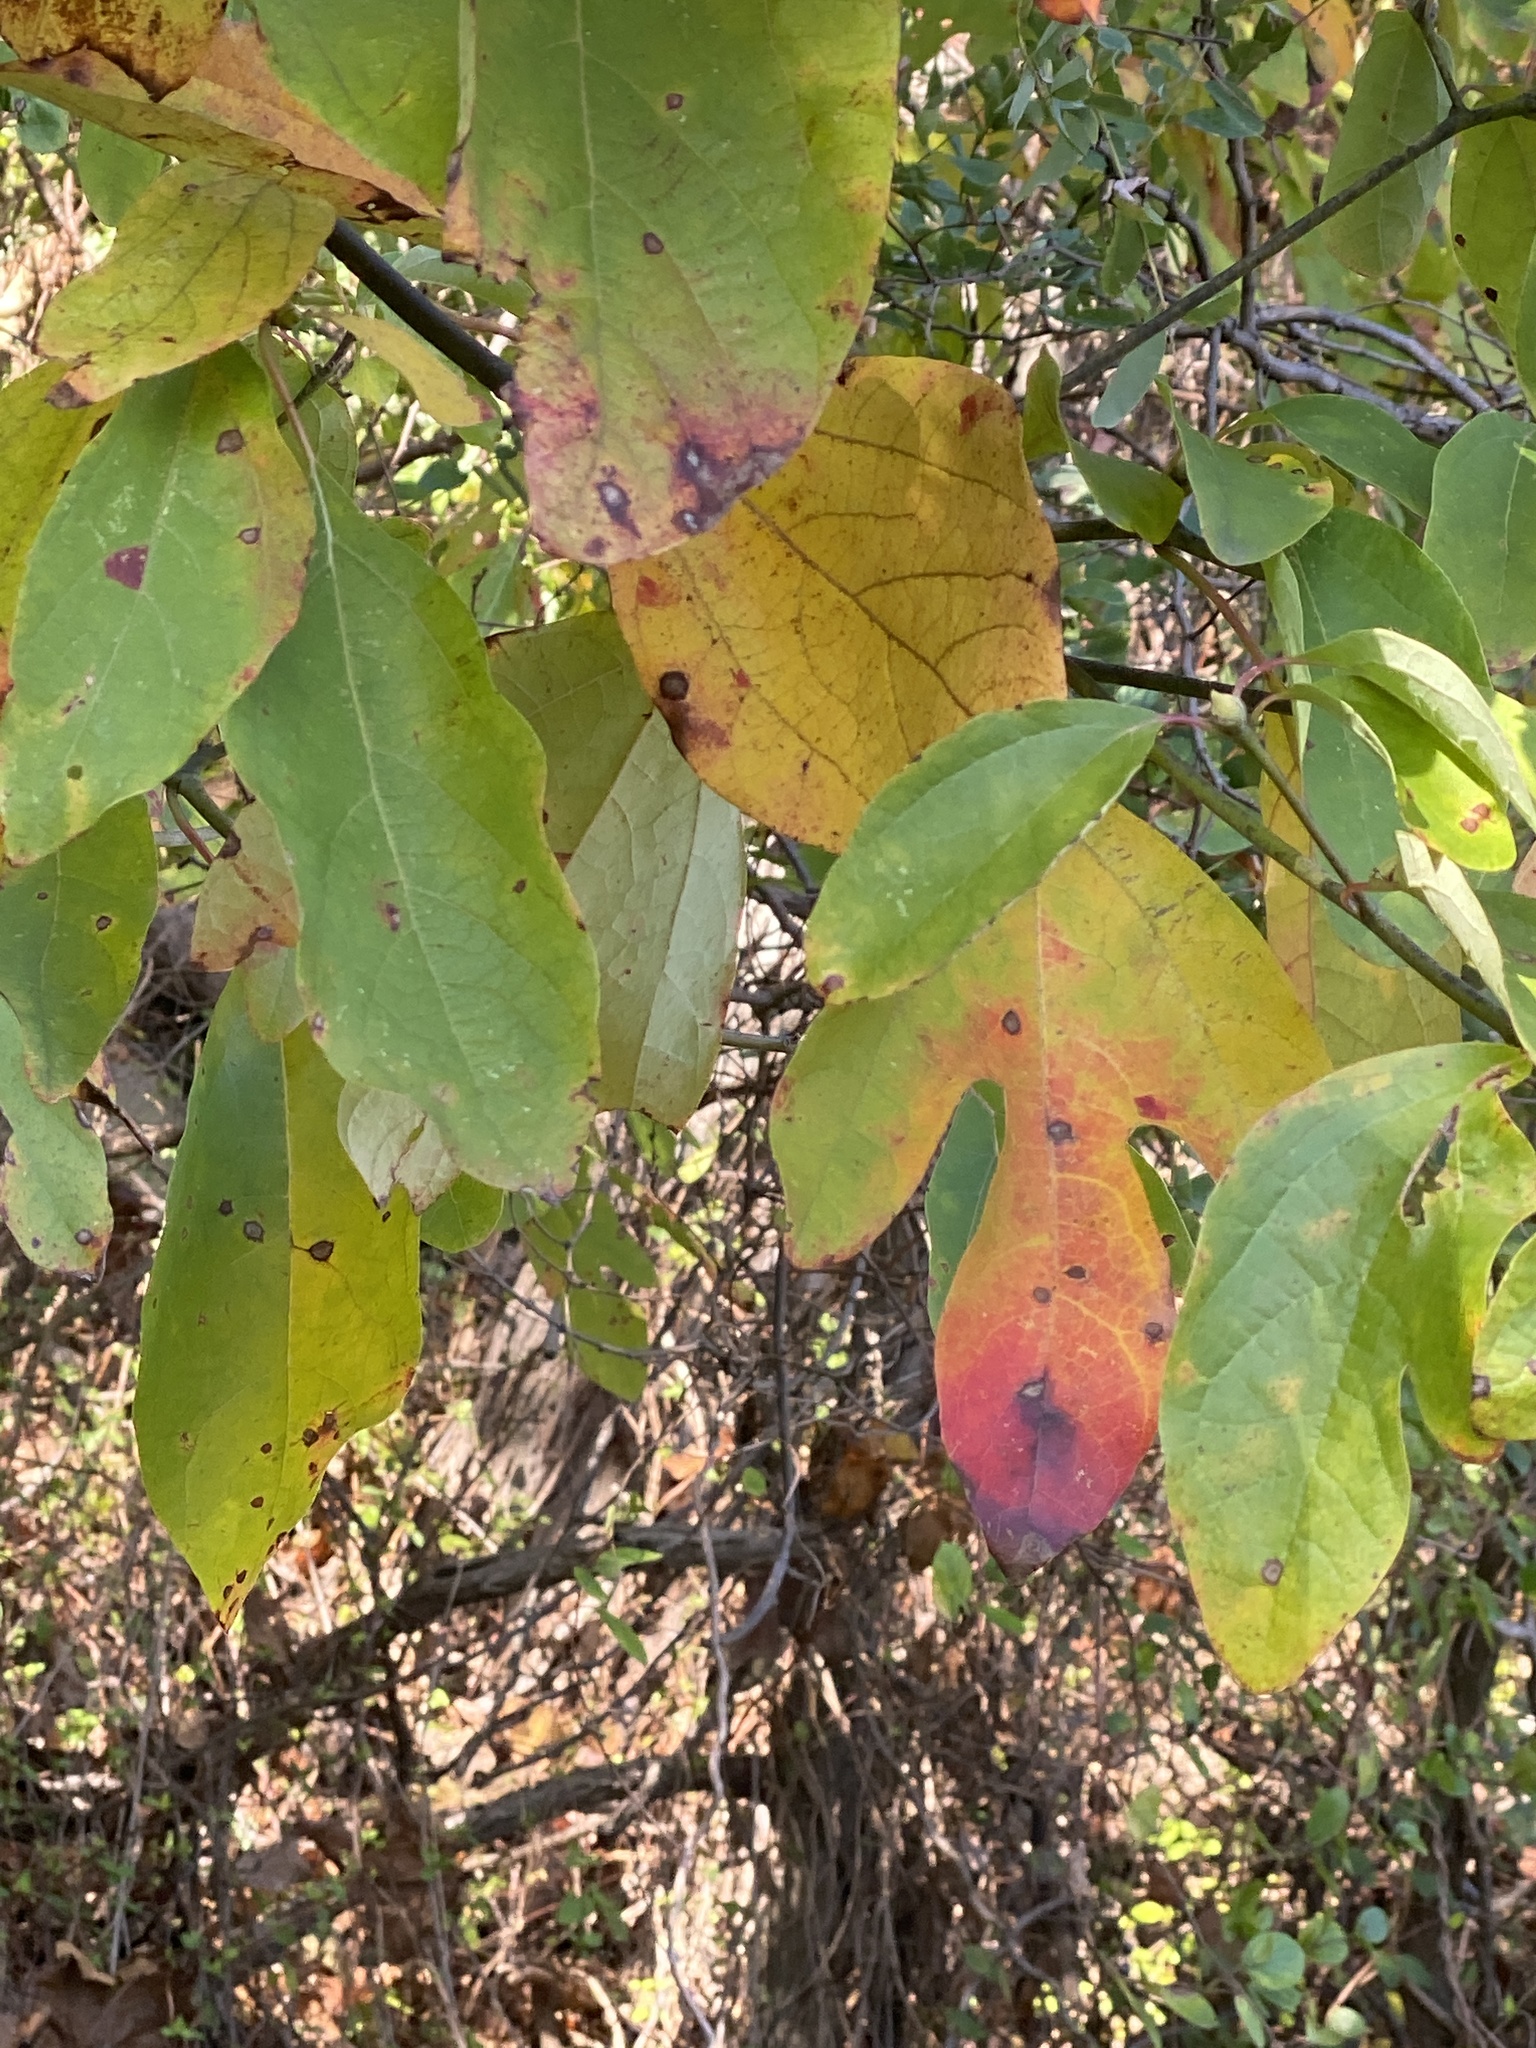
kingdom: Plantae
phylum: Tracheophyta
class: Magnoliopsida
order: Laurales
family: Lauraceae
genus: Sassafras
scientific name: Sassafras albidum
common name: Sassafras
